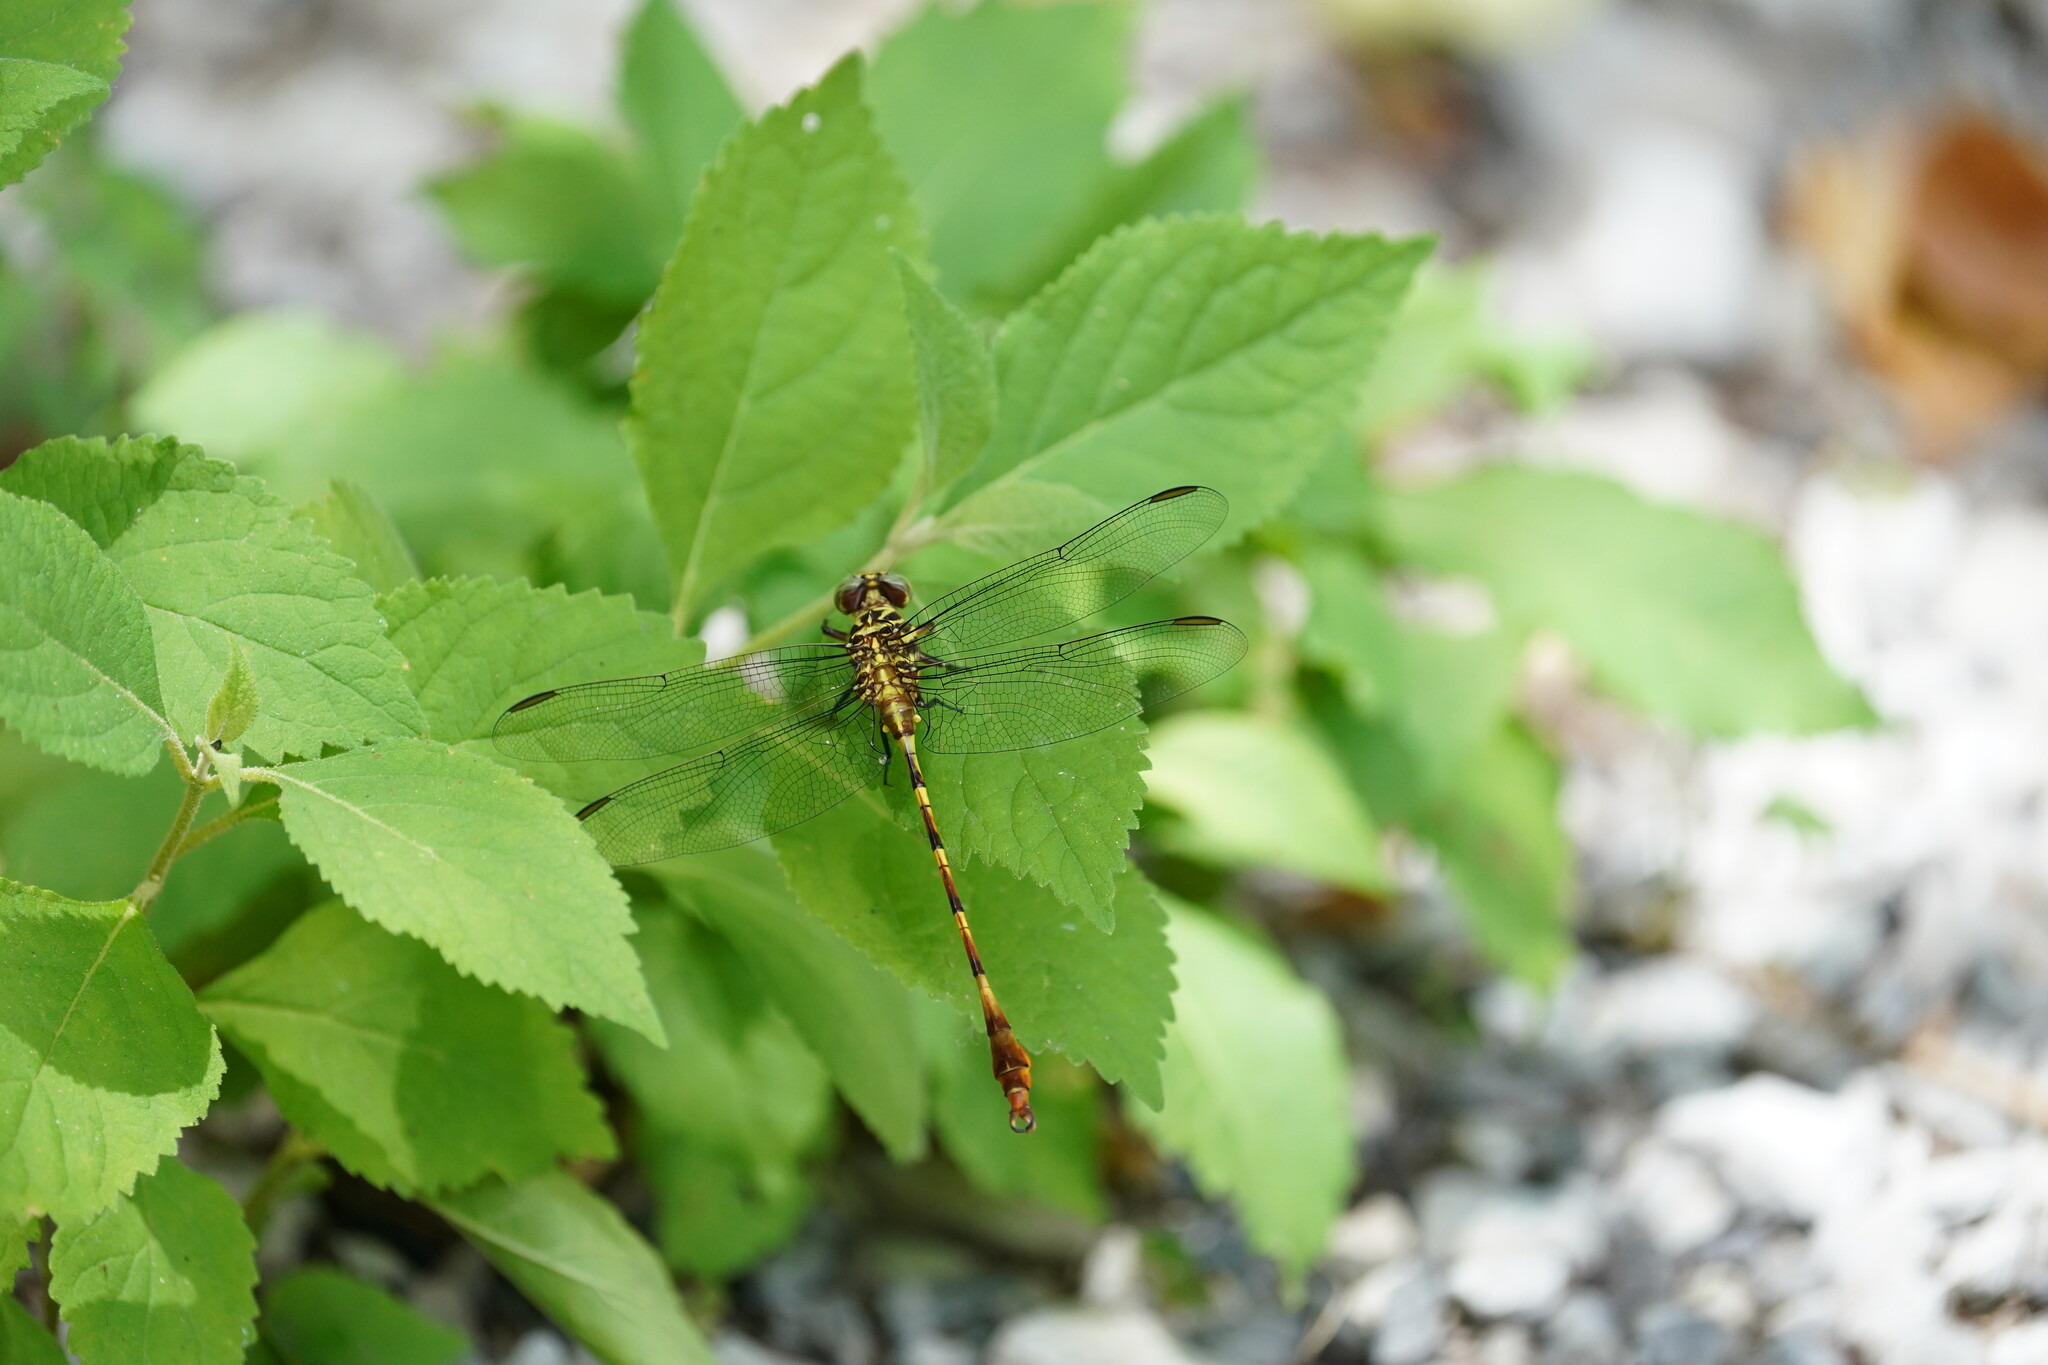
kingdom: Animalia
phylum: Arthropoda
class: Insecta
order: Odonata
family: Gomphidae
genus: Aphylla
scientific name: Aphylla angustifolia
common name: Broad-striped forceptail
